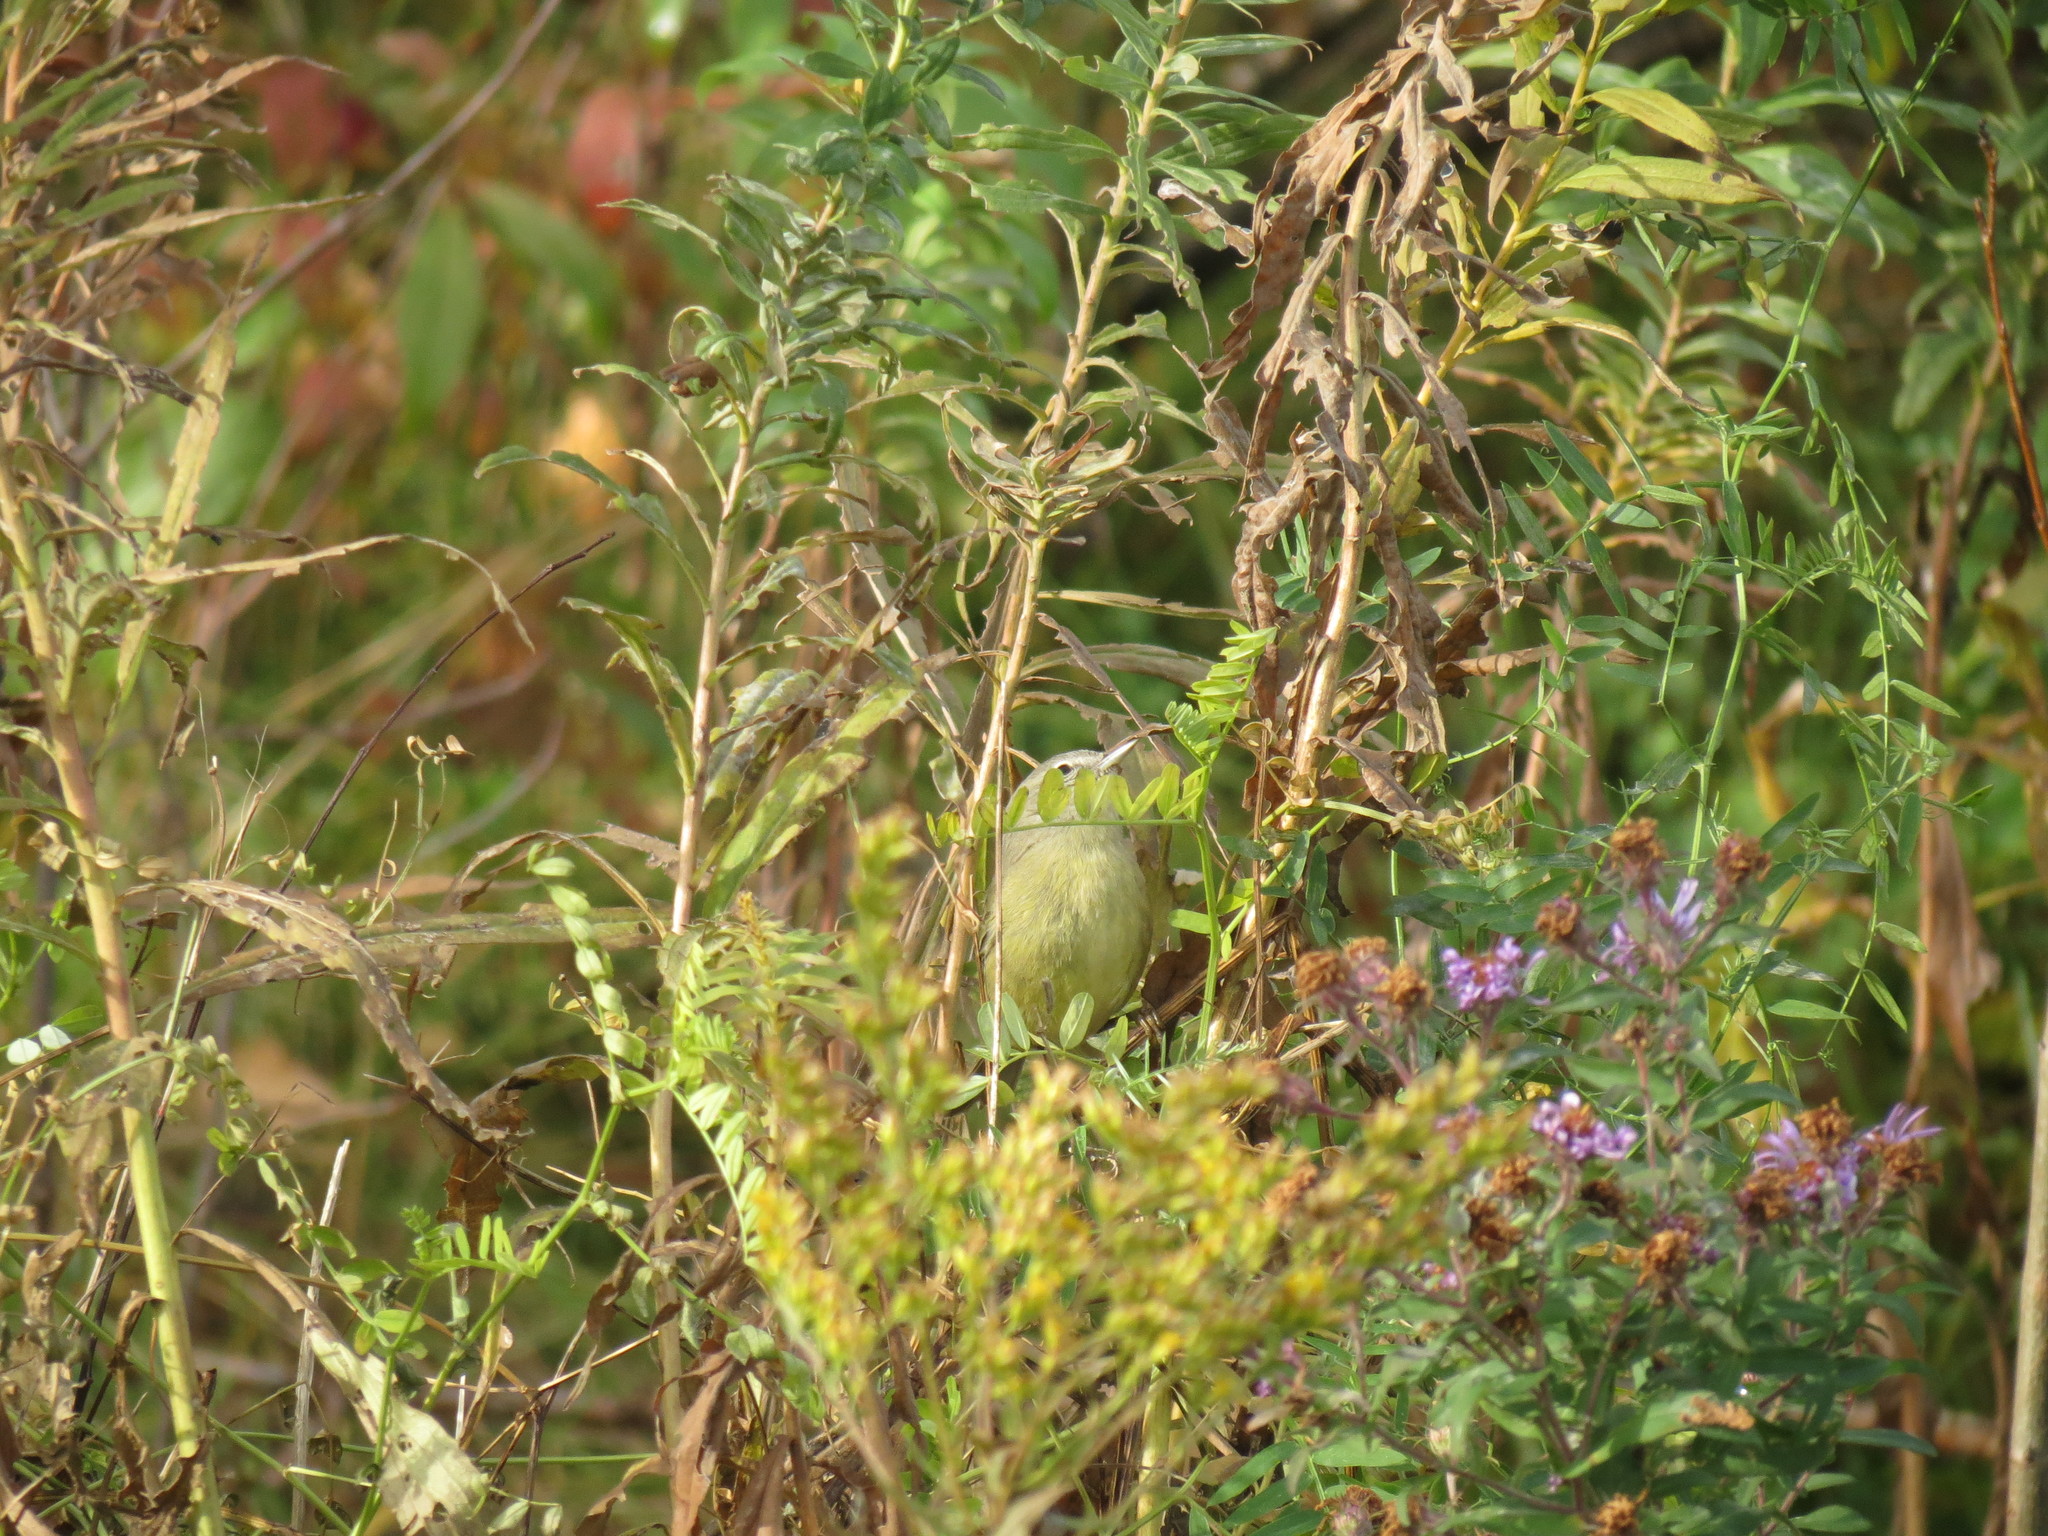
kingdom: Animalia
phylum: Chordata
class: Aves
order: Passeriformes
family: Parulidae
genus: Leiothlypis
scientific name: Leiothlypis celata
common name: Orange-crowned warbler
